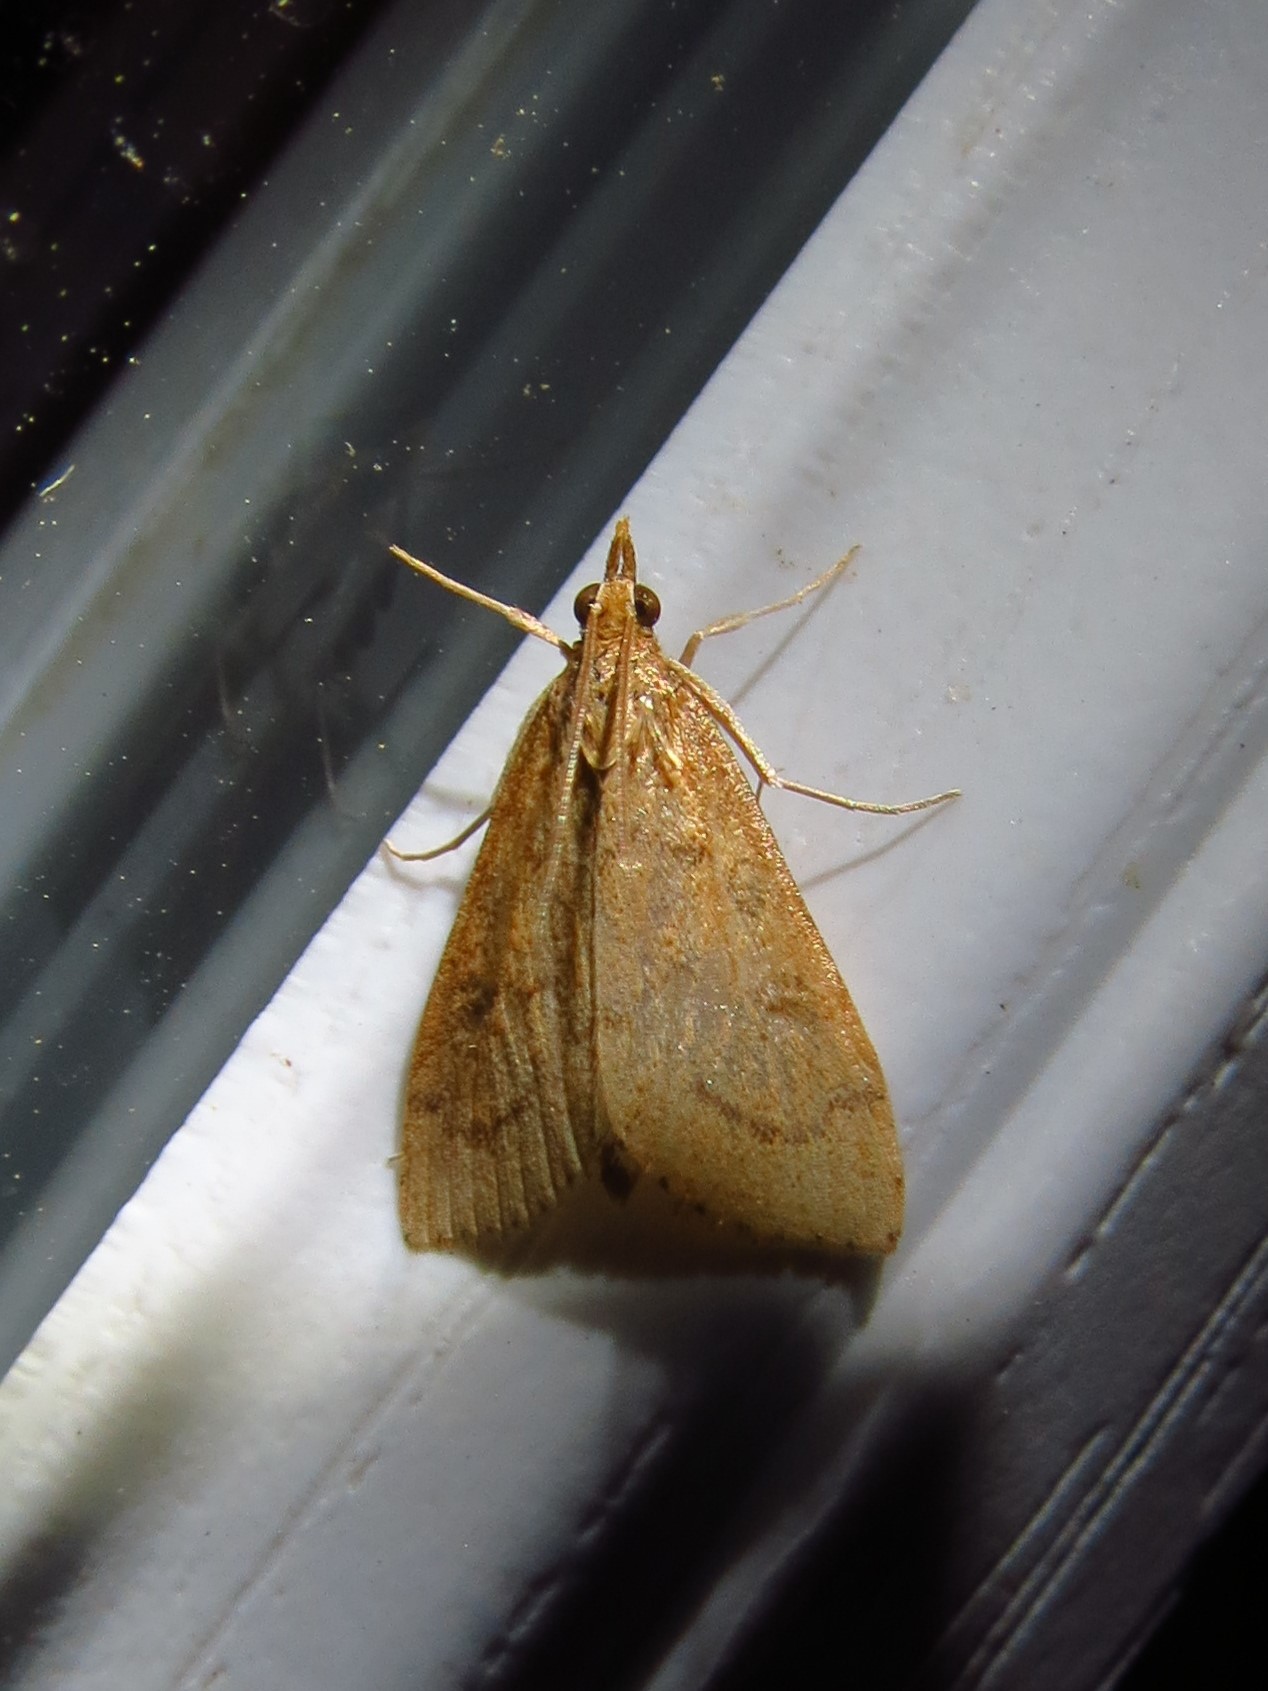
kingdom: Animalia
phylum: Arthropoda
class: Insecta
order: Lepidoptera
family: Crambidae
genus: Udea
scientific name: Udea rubigalis
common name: Celery leaftier moth
